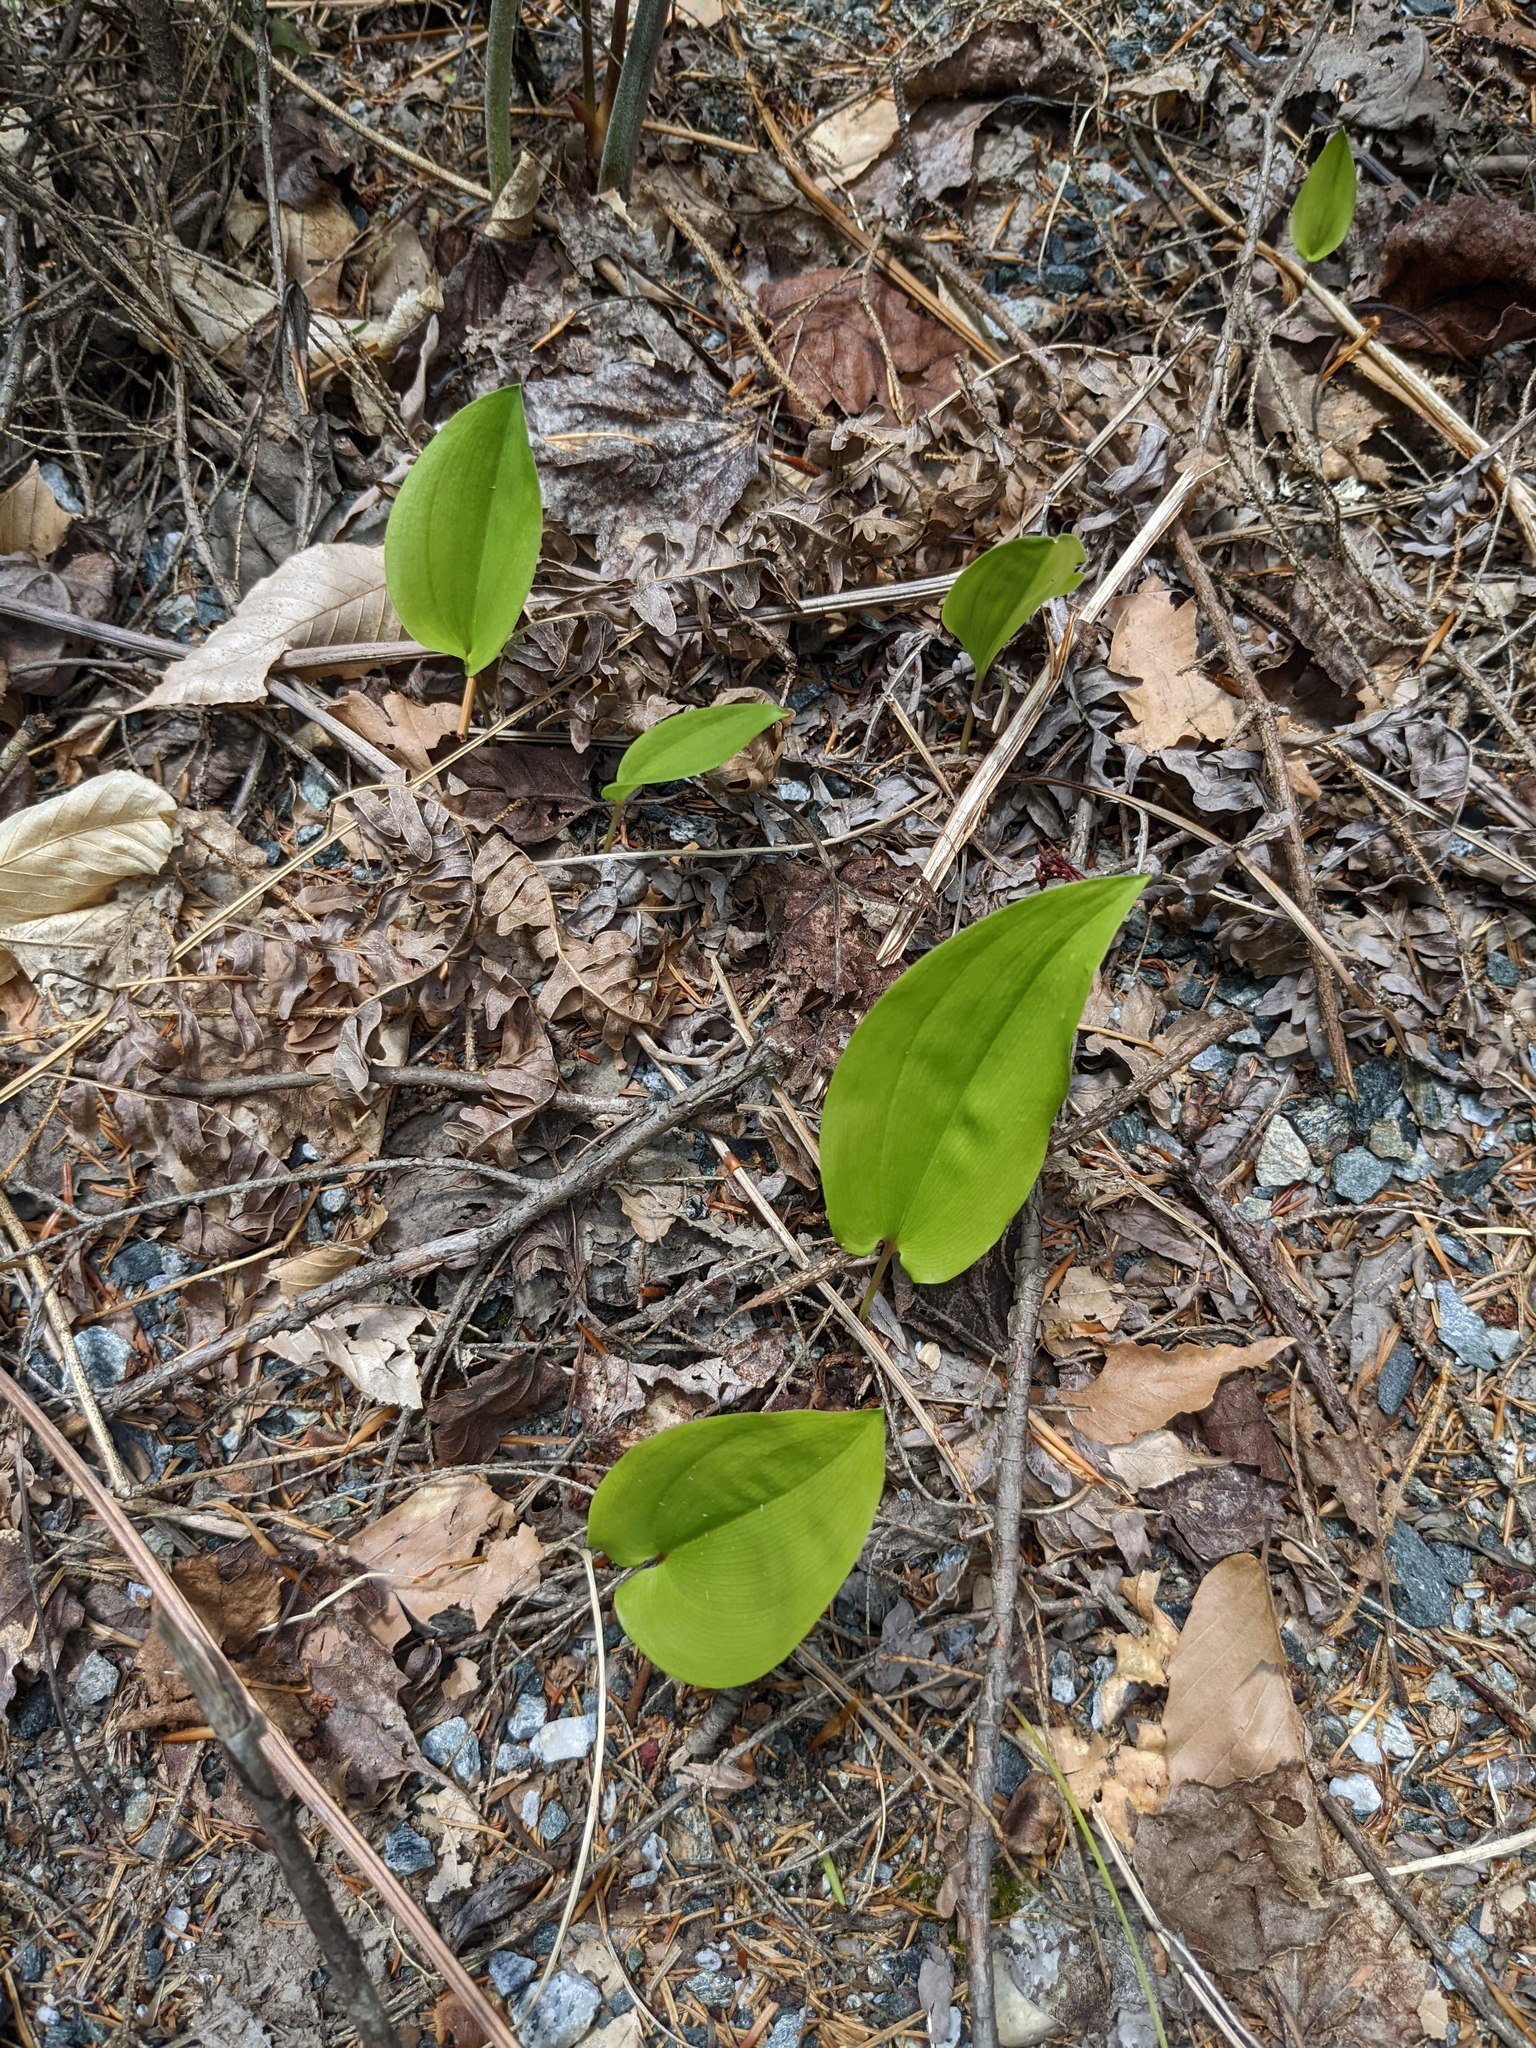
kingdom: Plantae
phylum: Tracheophyta
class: Liliopsida
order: Asparagales
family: Asparagaceae
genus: Maianthemum
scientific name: Maianthemum canadense
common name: False lily-of-the-valley
